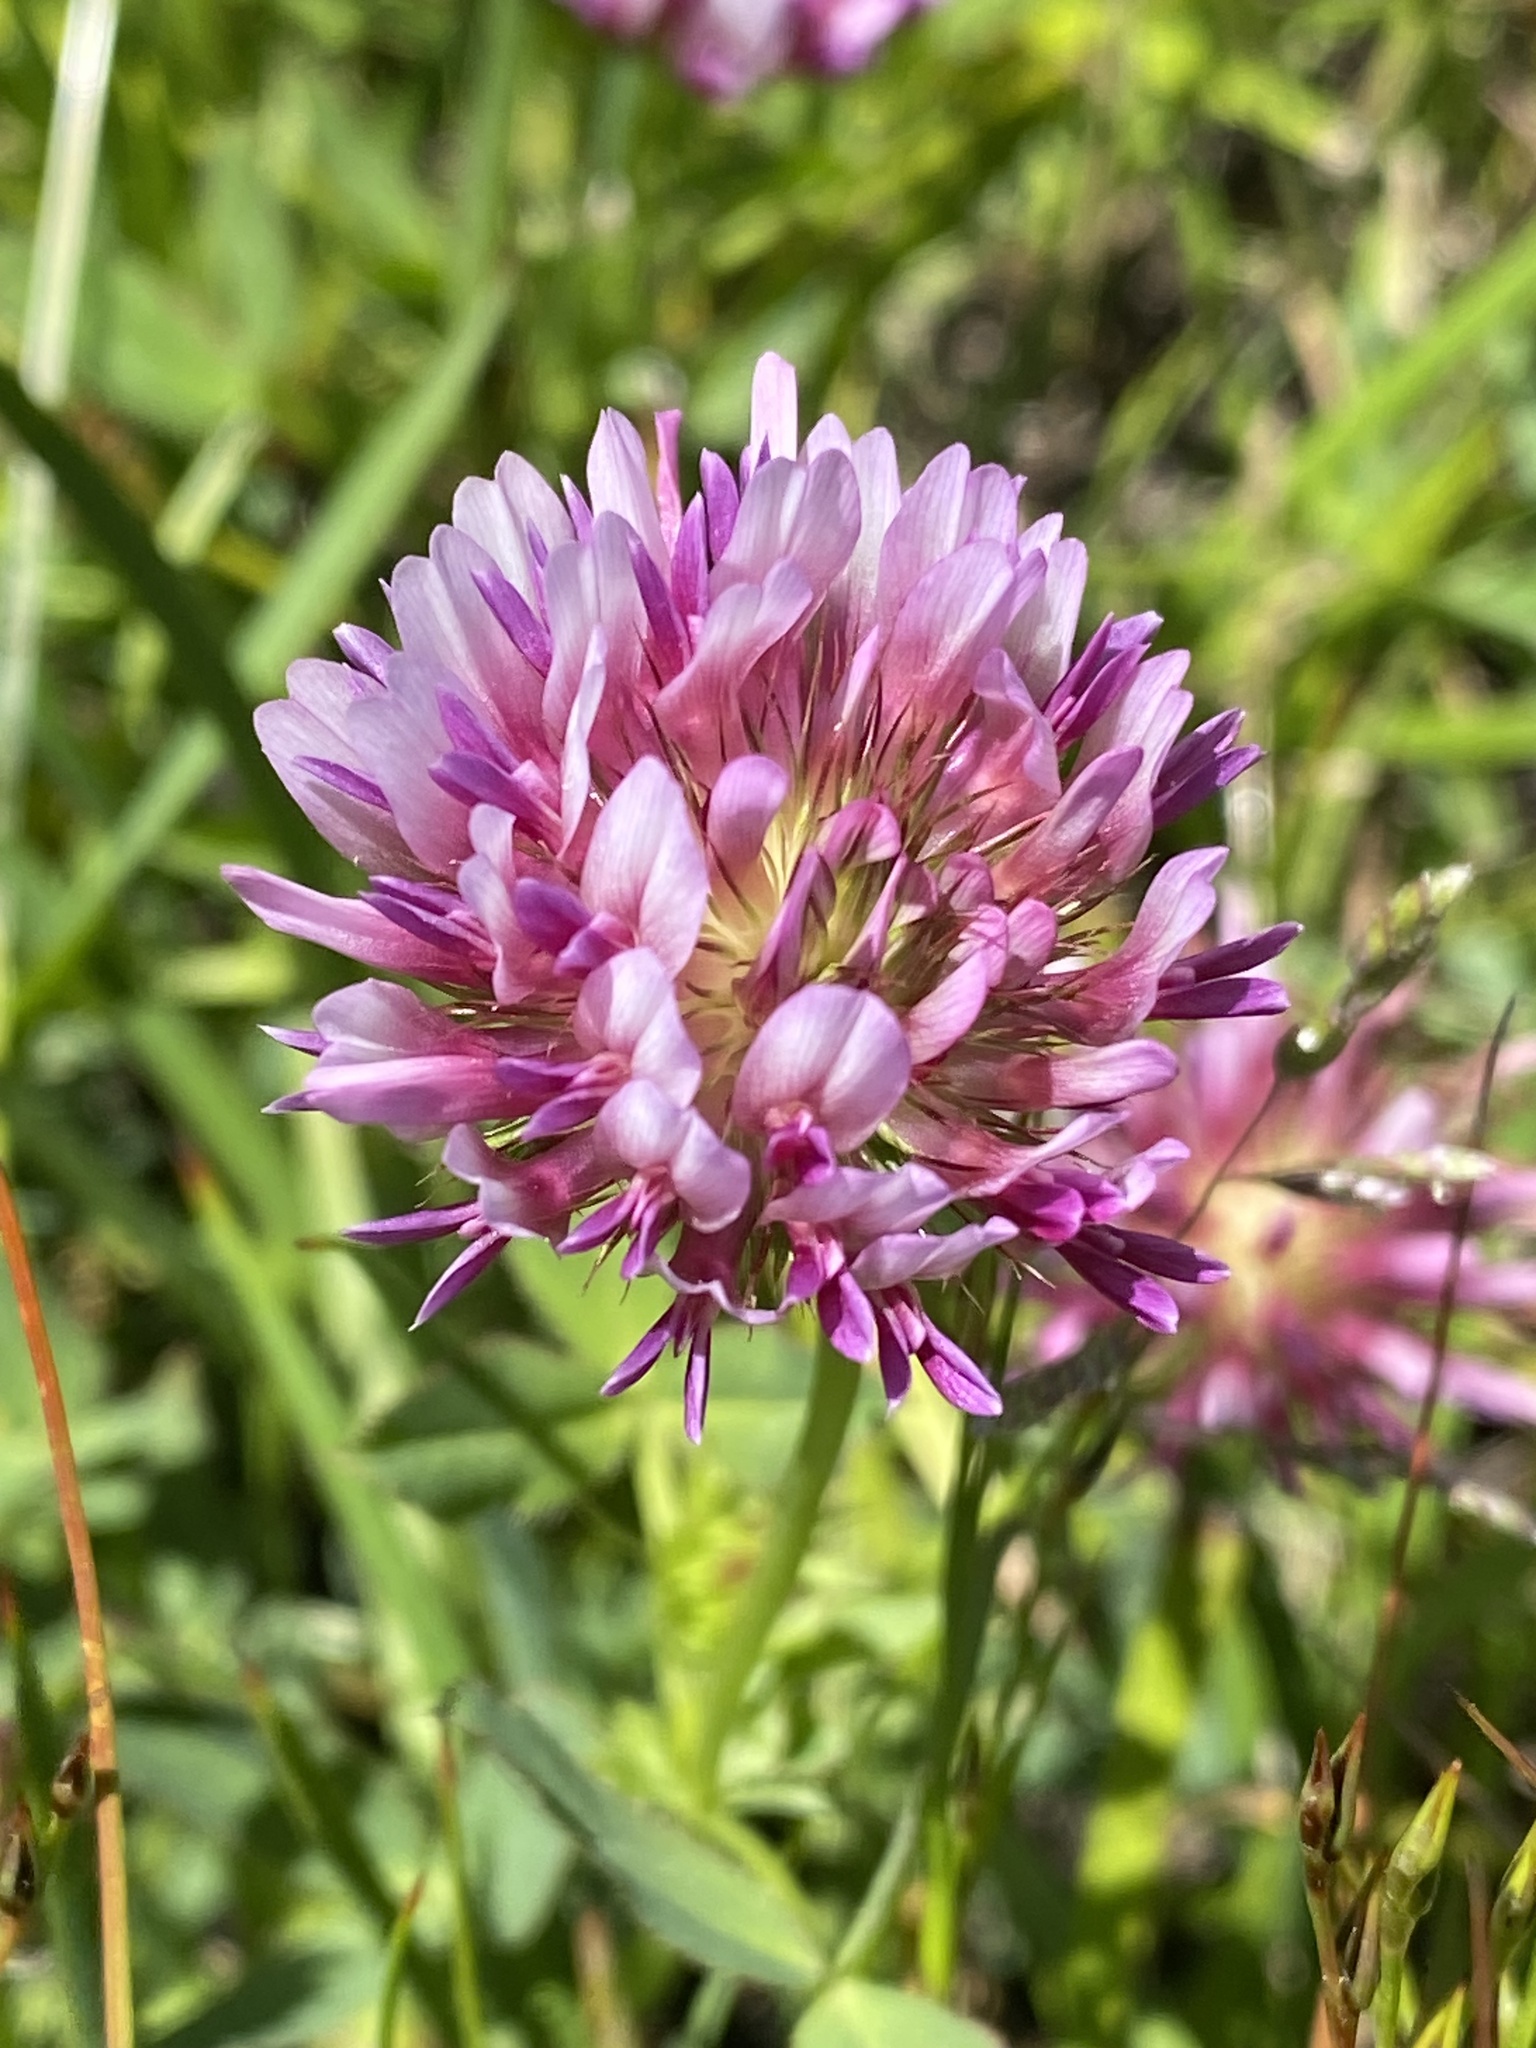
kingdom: Plantae
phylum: Tracheophyta
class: Magnoliopsida
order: Fabales
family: Fabaceae
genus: Trifolium
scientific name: Trifolium wormskioldii
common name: Springbank clover
